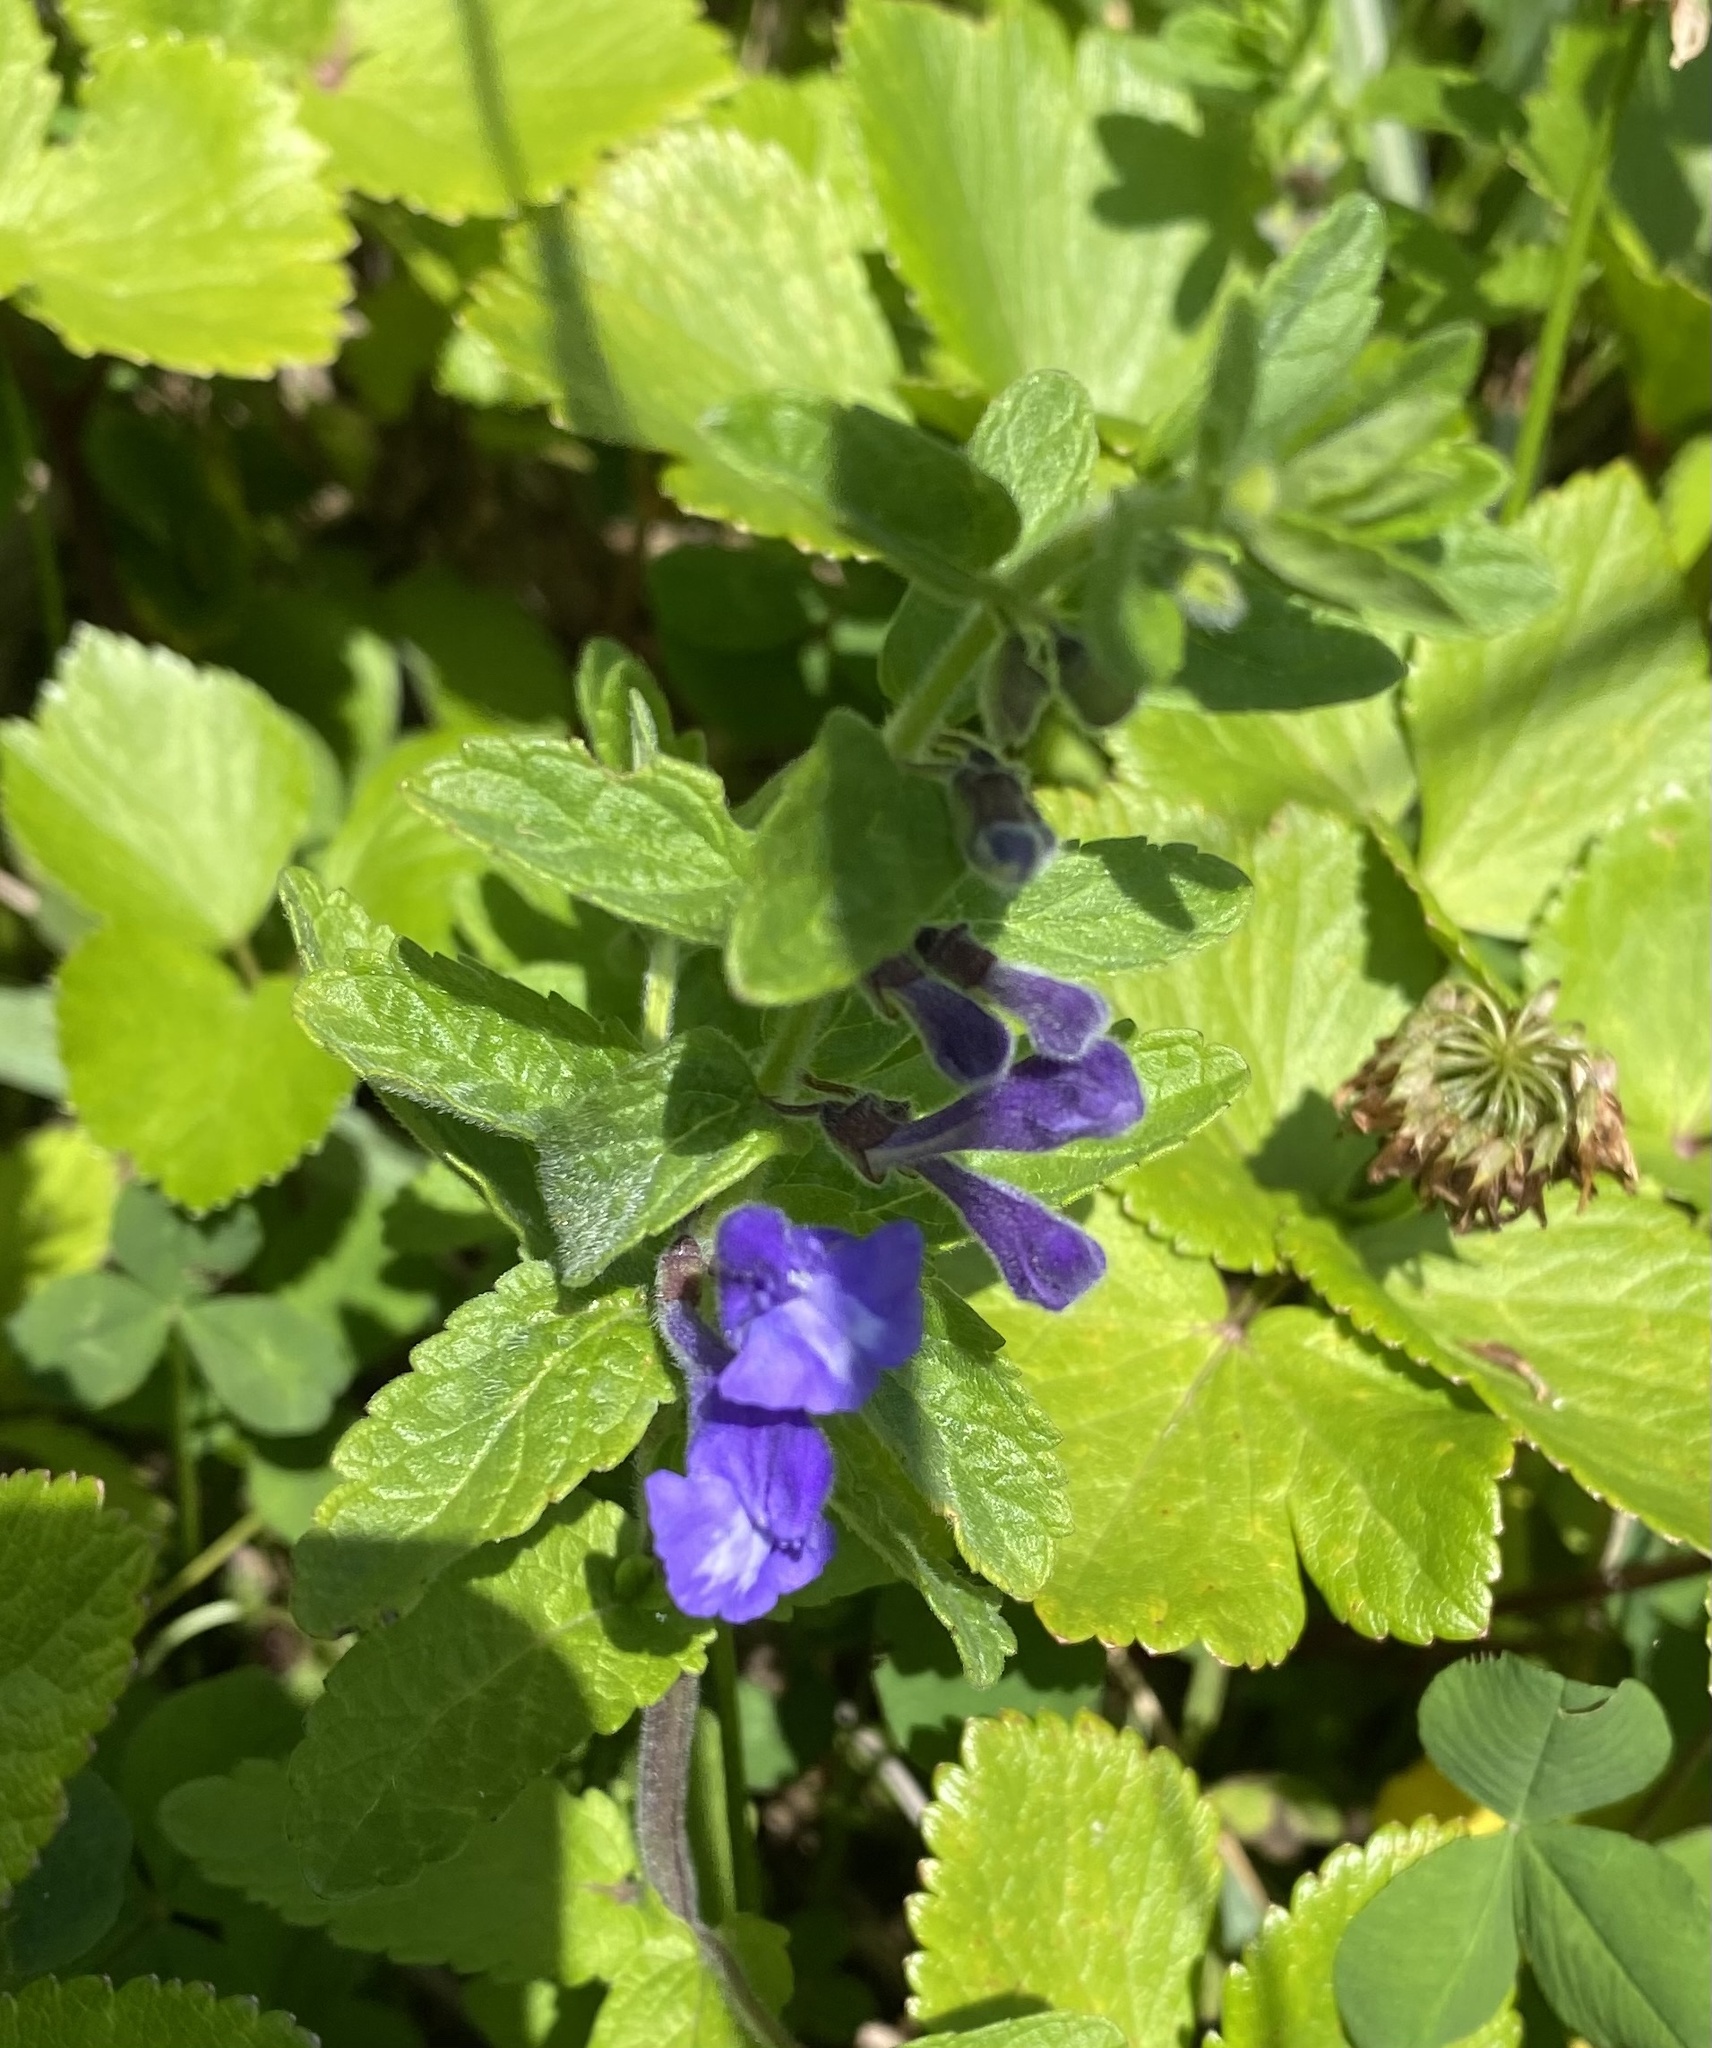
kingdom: Plantae
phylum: Tracheophyta
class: Magnoliopsida
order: Lamiales
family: Lamiaceae
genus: Scutellaria
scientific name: Scutellaria strigillosa
